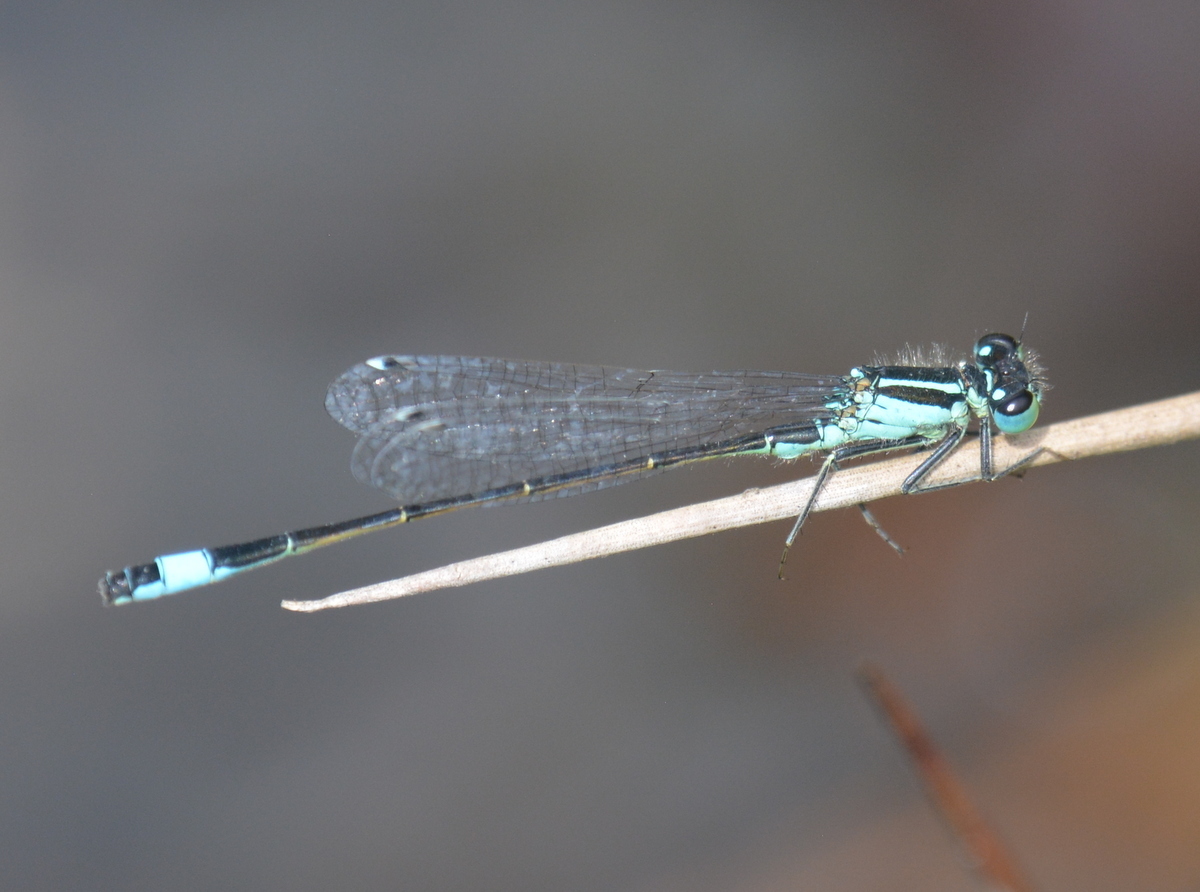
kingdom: Animalia
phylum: Arthropoda
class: Insecta
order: Odonata
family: Coenagrionidae
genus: Ischnura
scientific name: Ischnura elegans
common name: Blue-tailed damselfly
